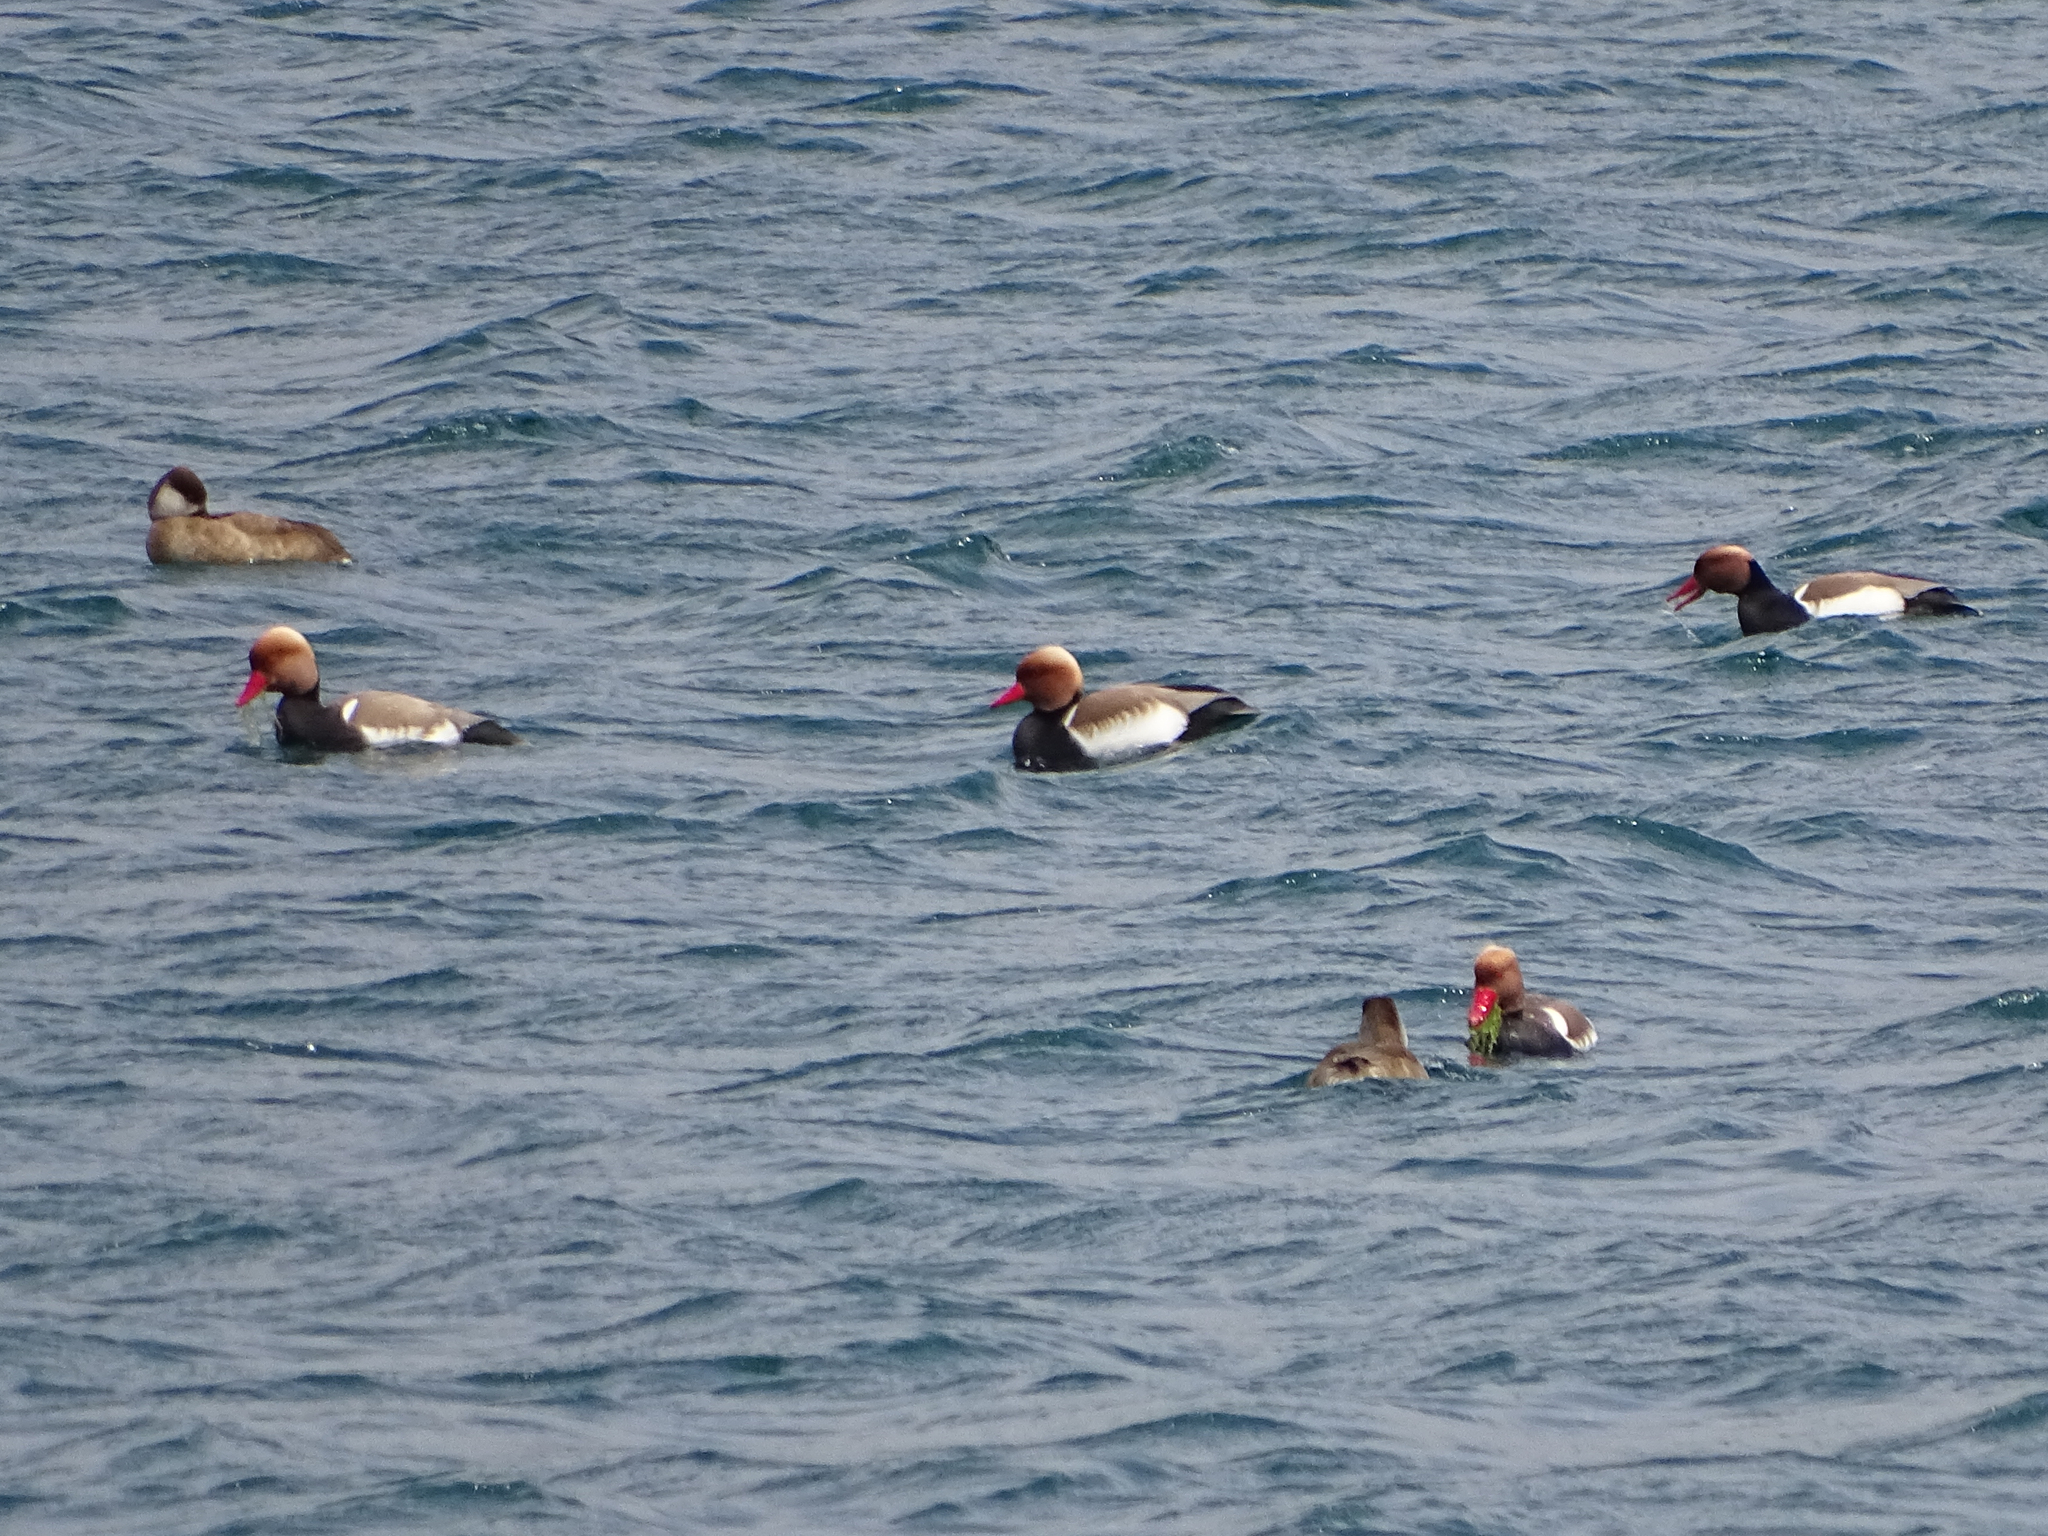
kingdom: Animalia
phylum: Chordata
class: Aves
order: Anseriformes
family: Anatidae
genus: Netta
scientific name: Netta rufina
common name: Red-crested pochard
